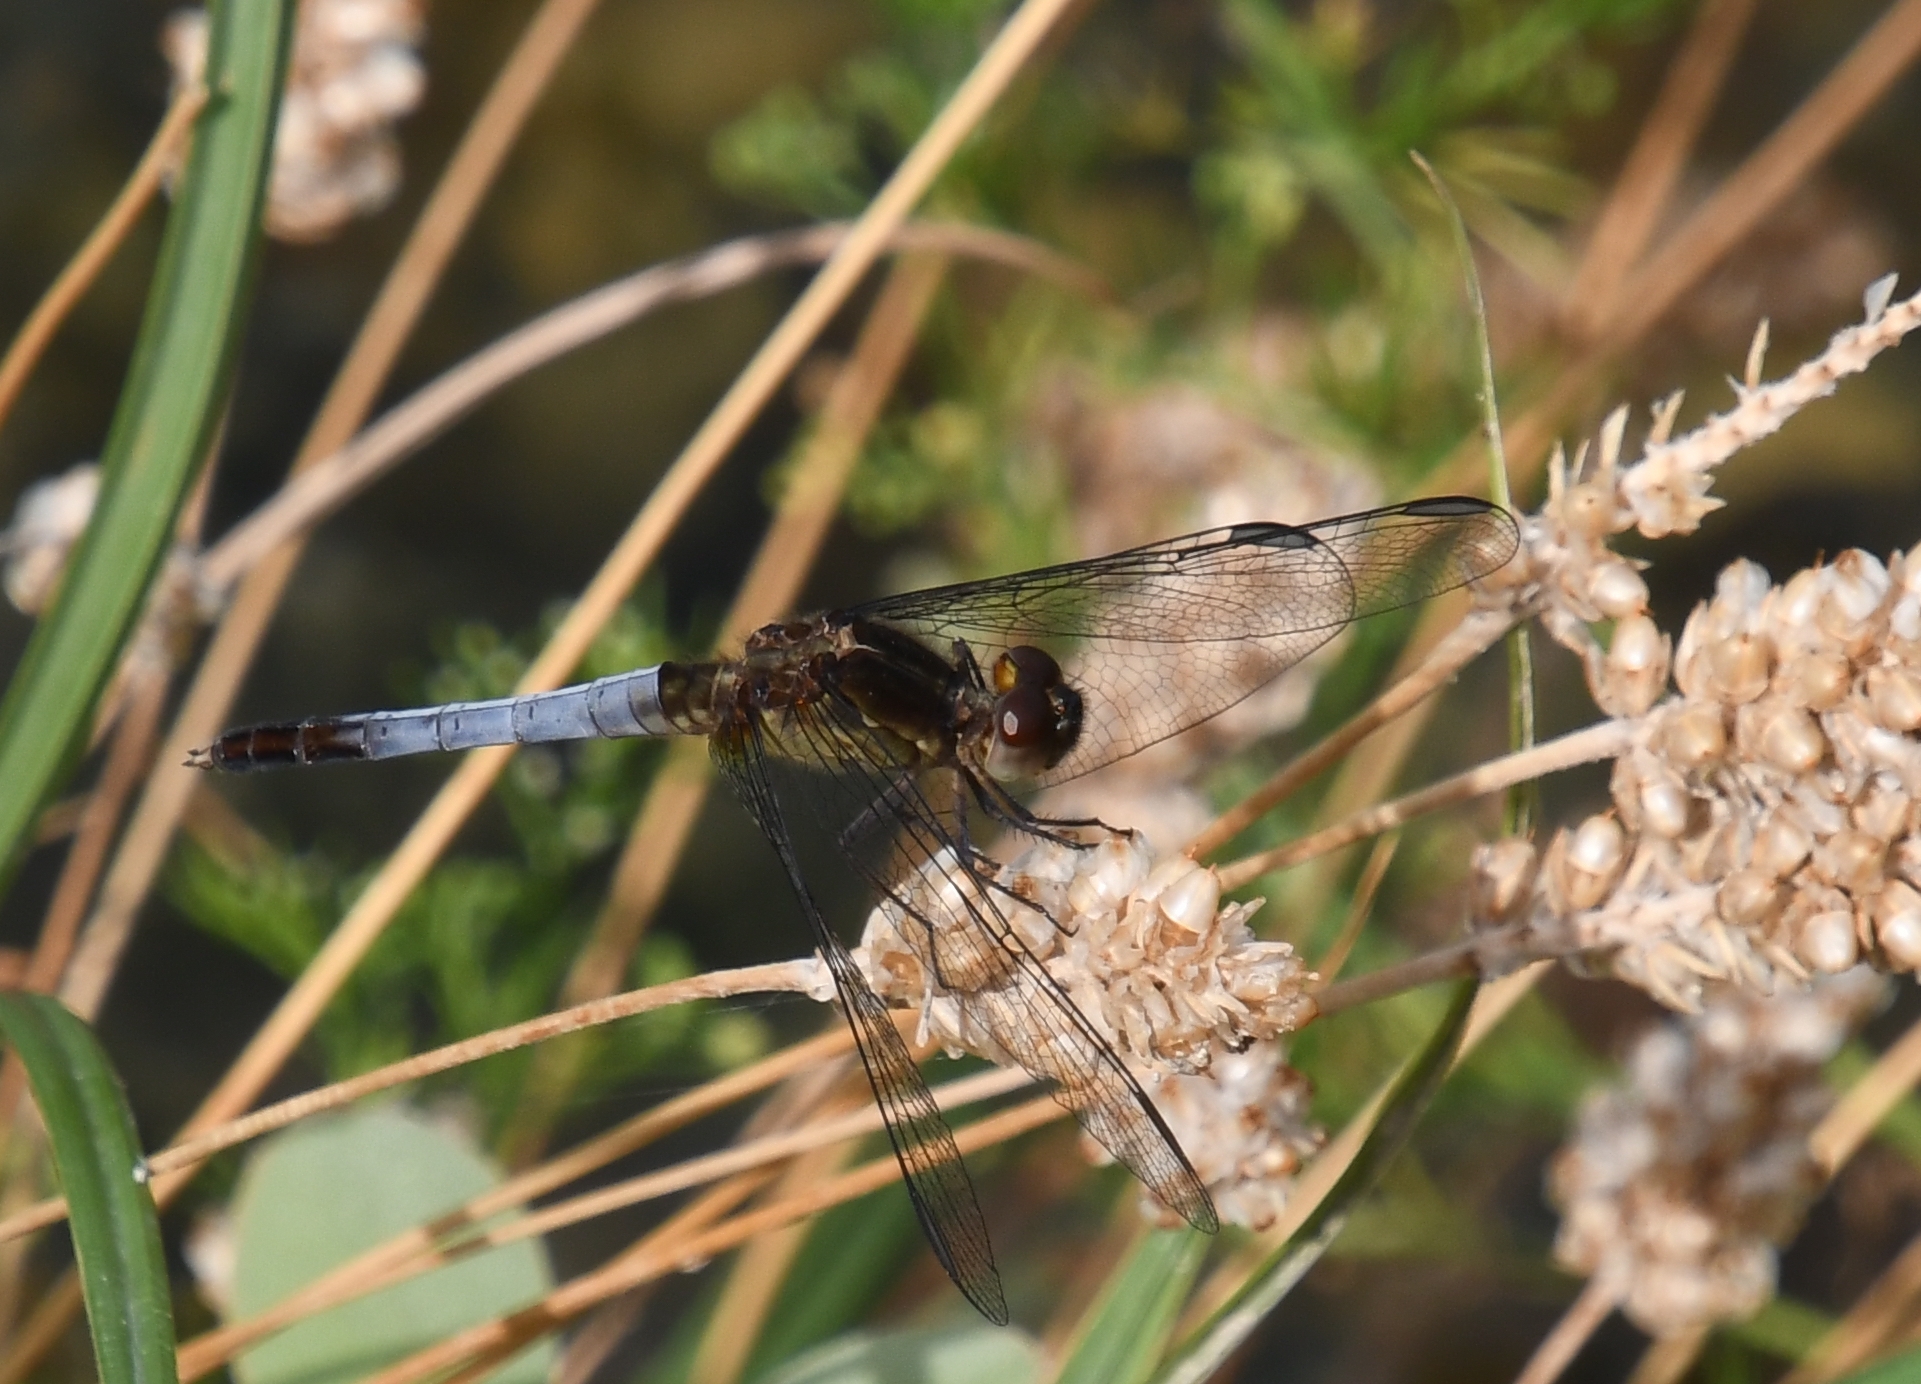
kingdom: Animalia
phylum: Arthropoda
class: Insecta
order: Odonata
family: Libellulidae
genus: Erythrodiplax
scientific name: Erythrodiplax basifusca
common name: Plateau dragonlet
